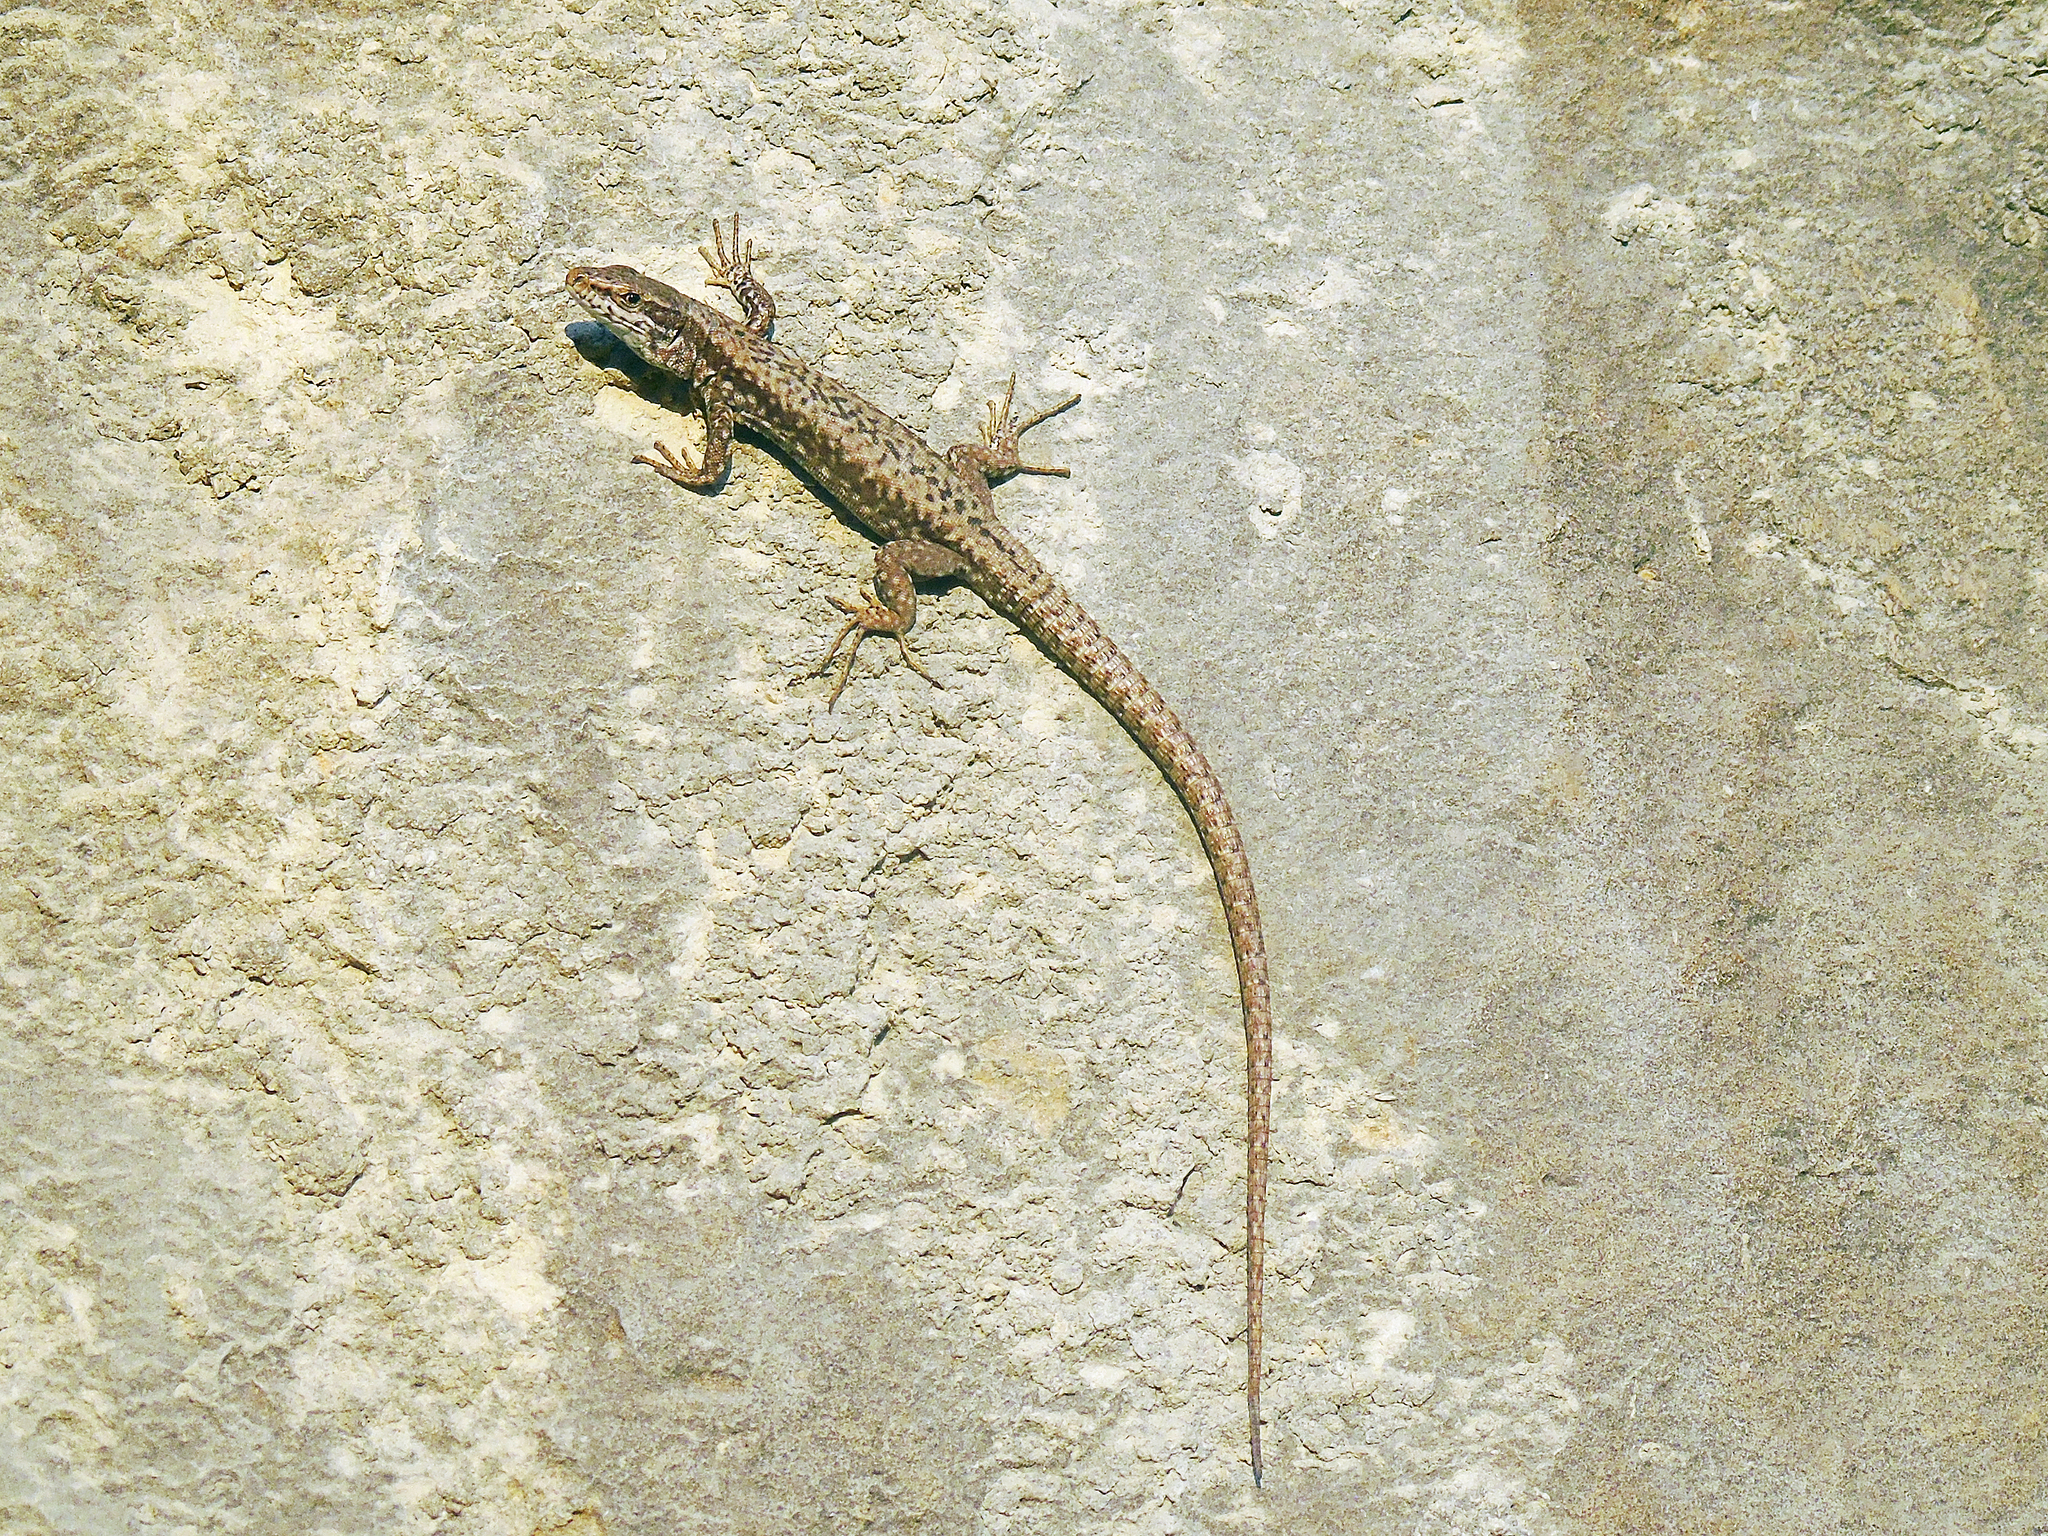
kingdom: Animalia
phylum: Chordata
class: Squamata
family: Lacertidae
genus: Podarcis
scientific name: Podarcis muralis
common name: Common wall lizard
